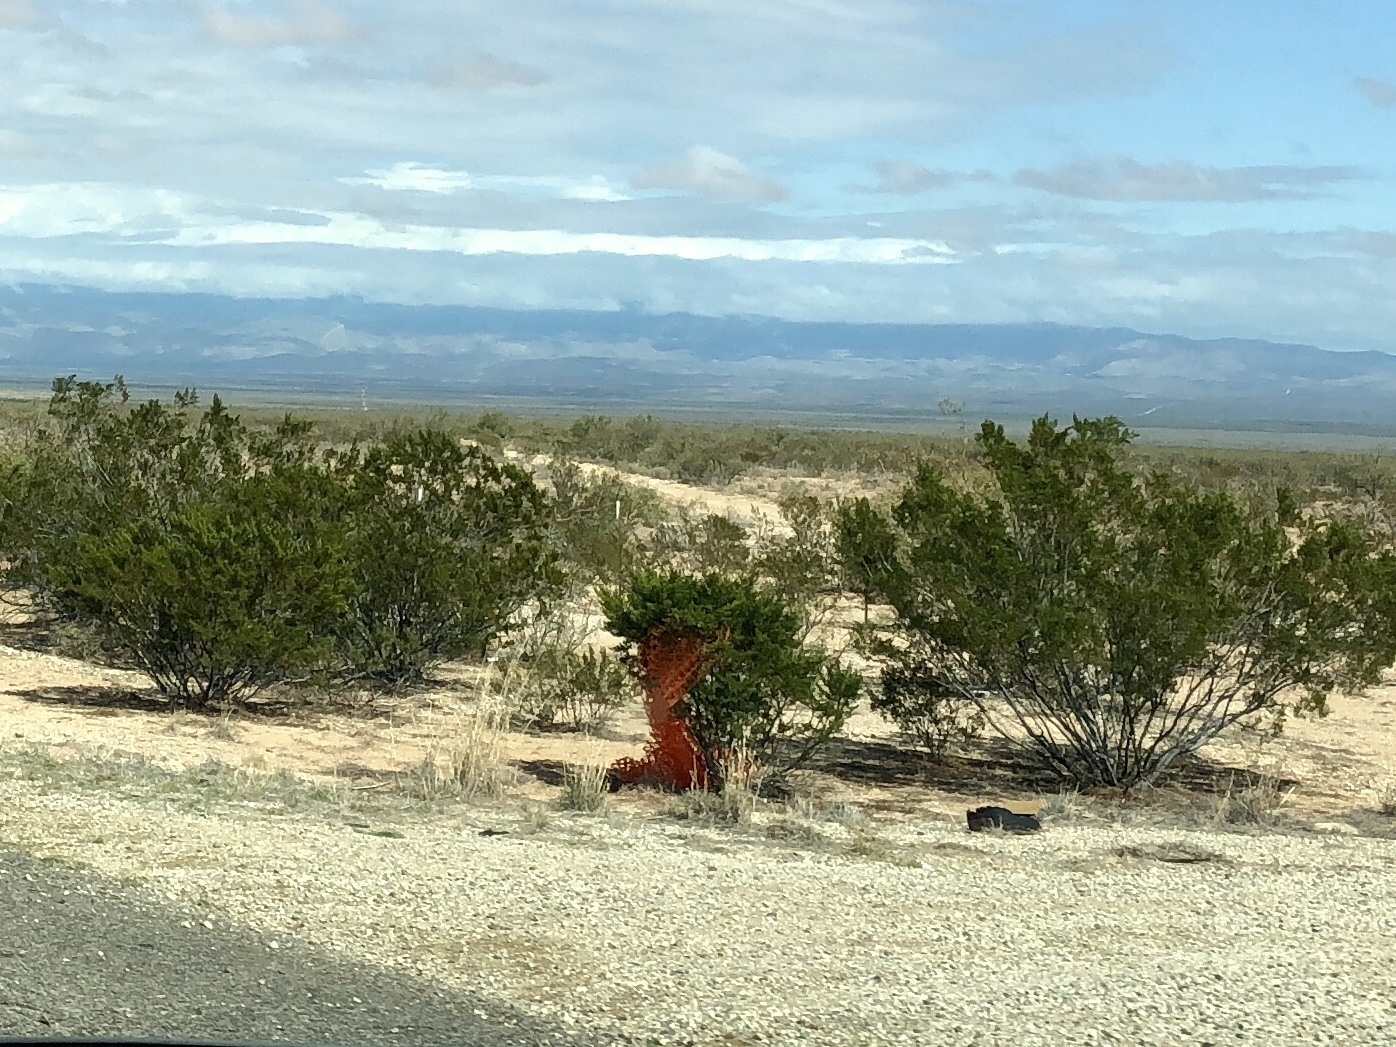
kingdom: Plantae
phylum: Tracheophyta
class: Magnoliopsida
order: Zygophyllales
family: Zygophyllaceae
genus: Larrea
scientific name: Larrea tridentata
